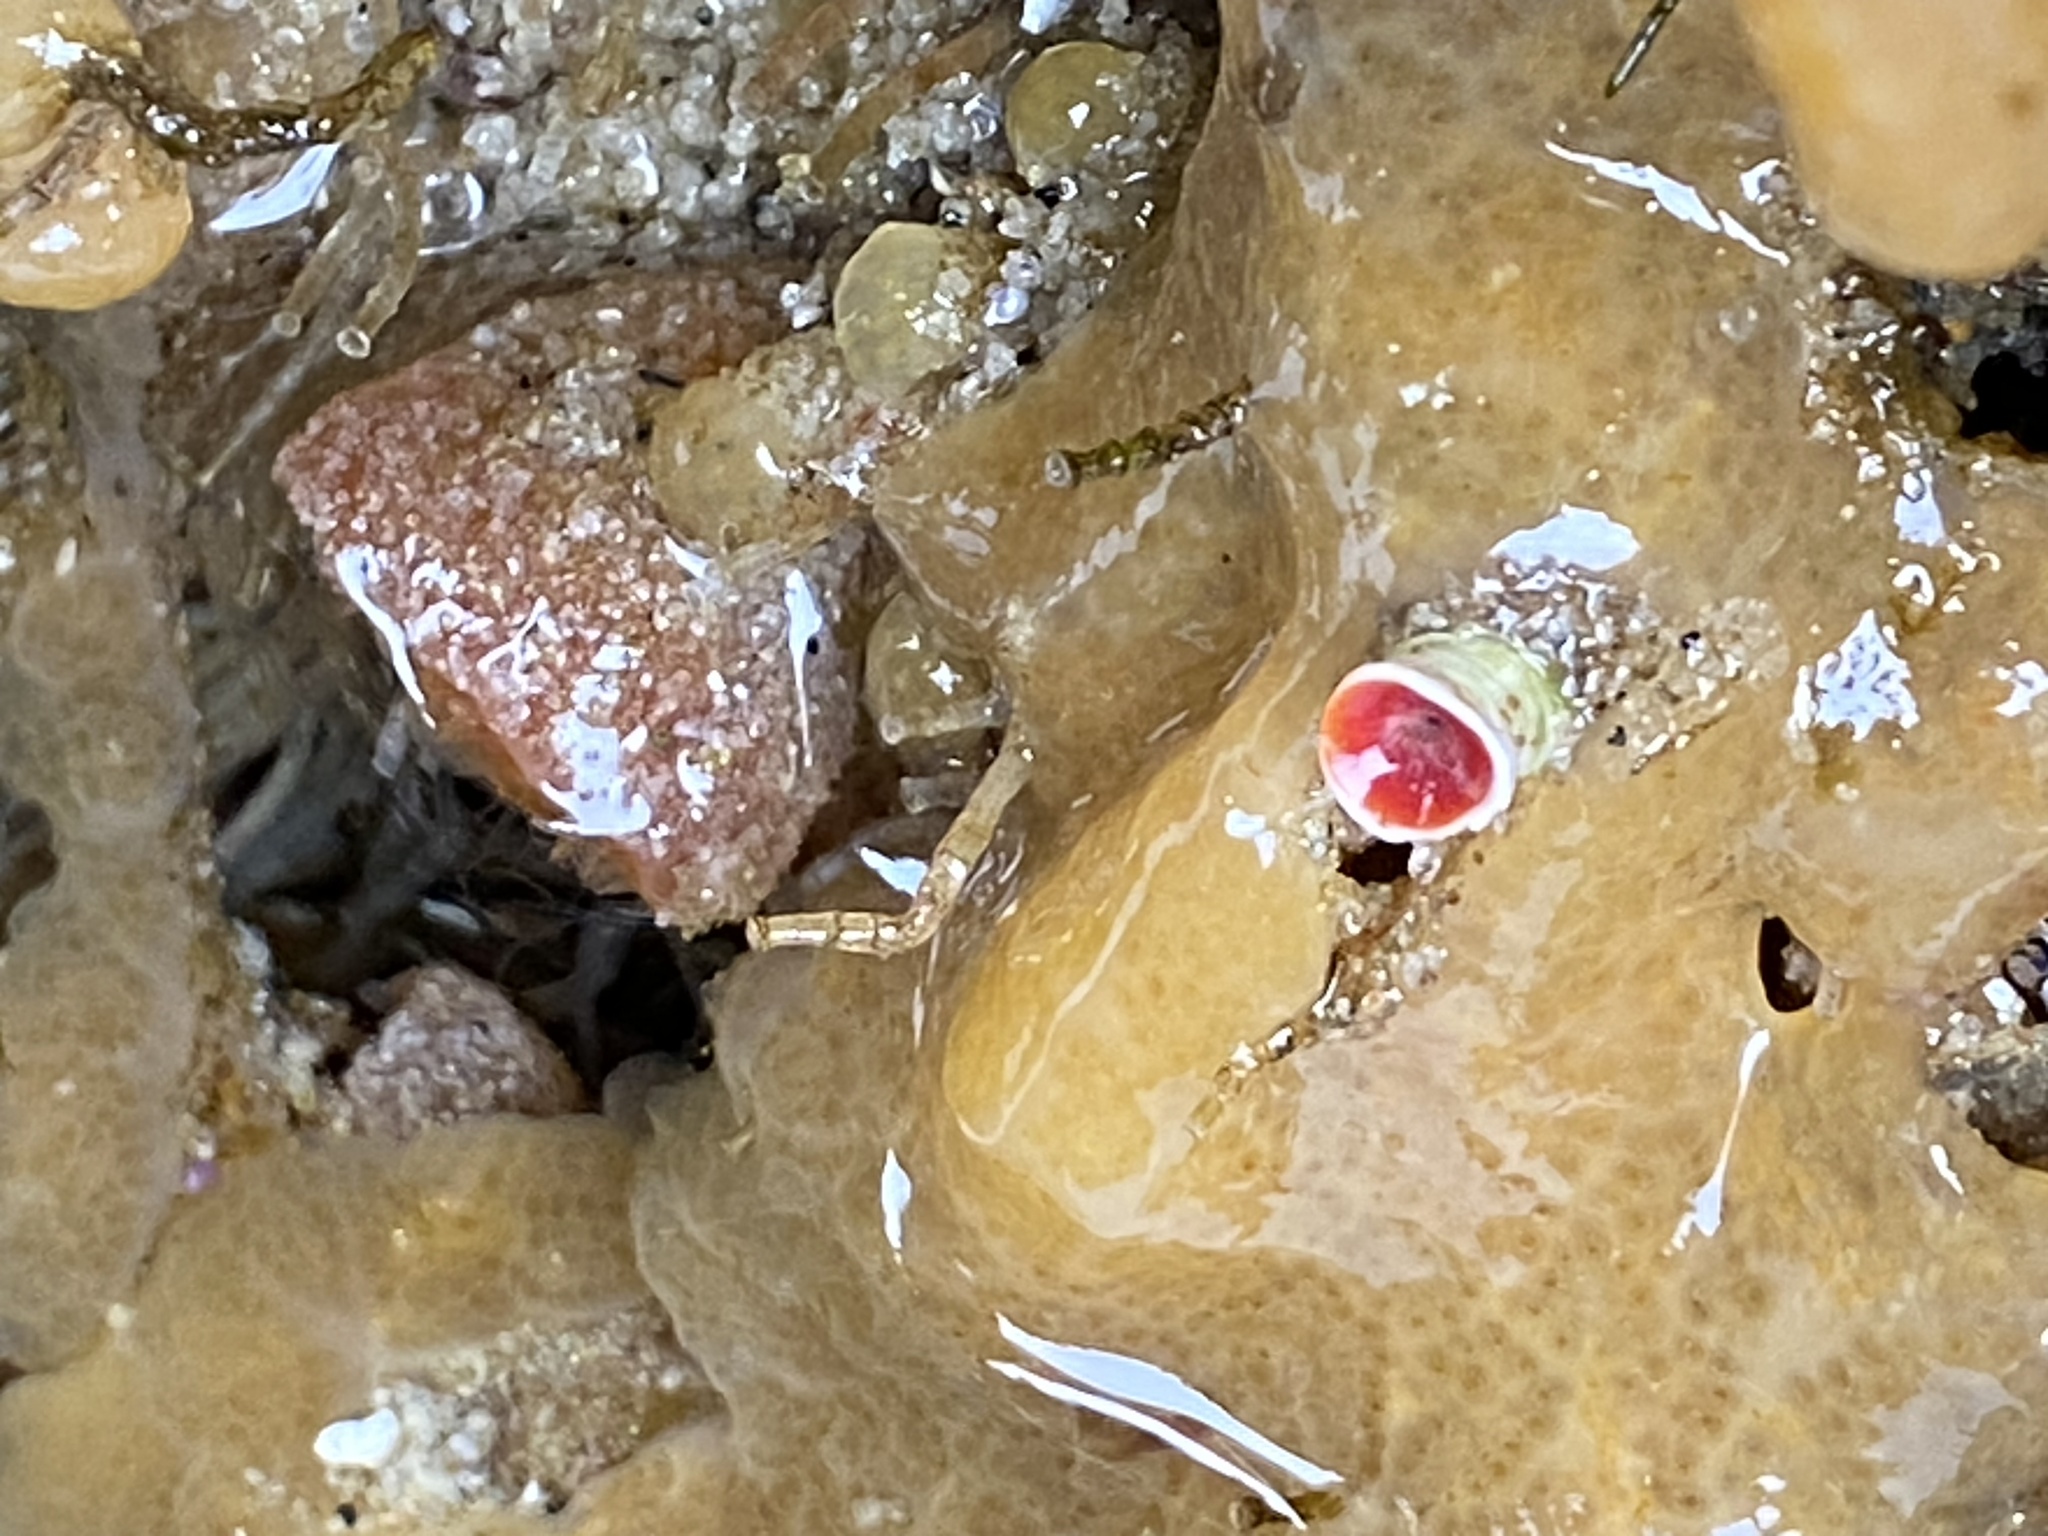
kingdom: Animalia
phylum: Annelida
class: Polychaeta
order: Sabellida
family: Serpulidae
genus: Serpula
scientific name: Serpula columbiana
